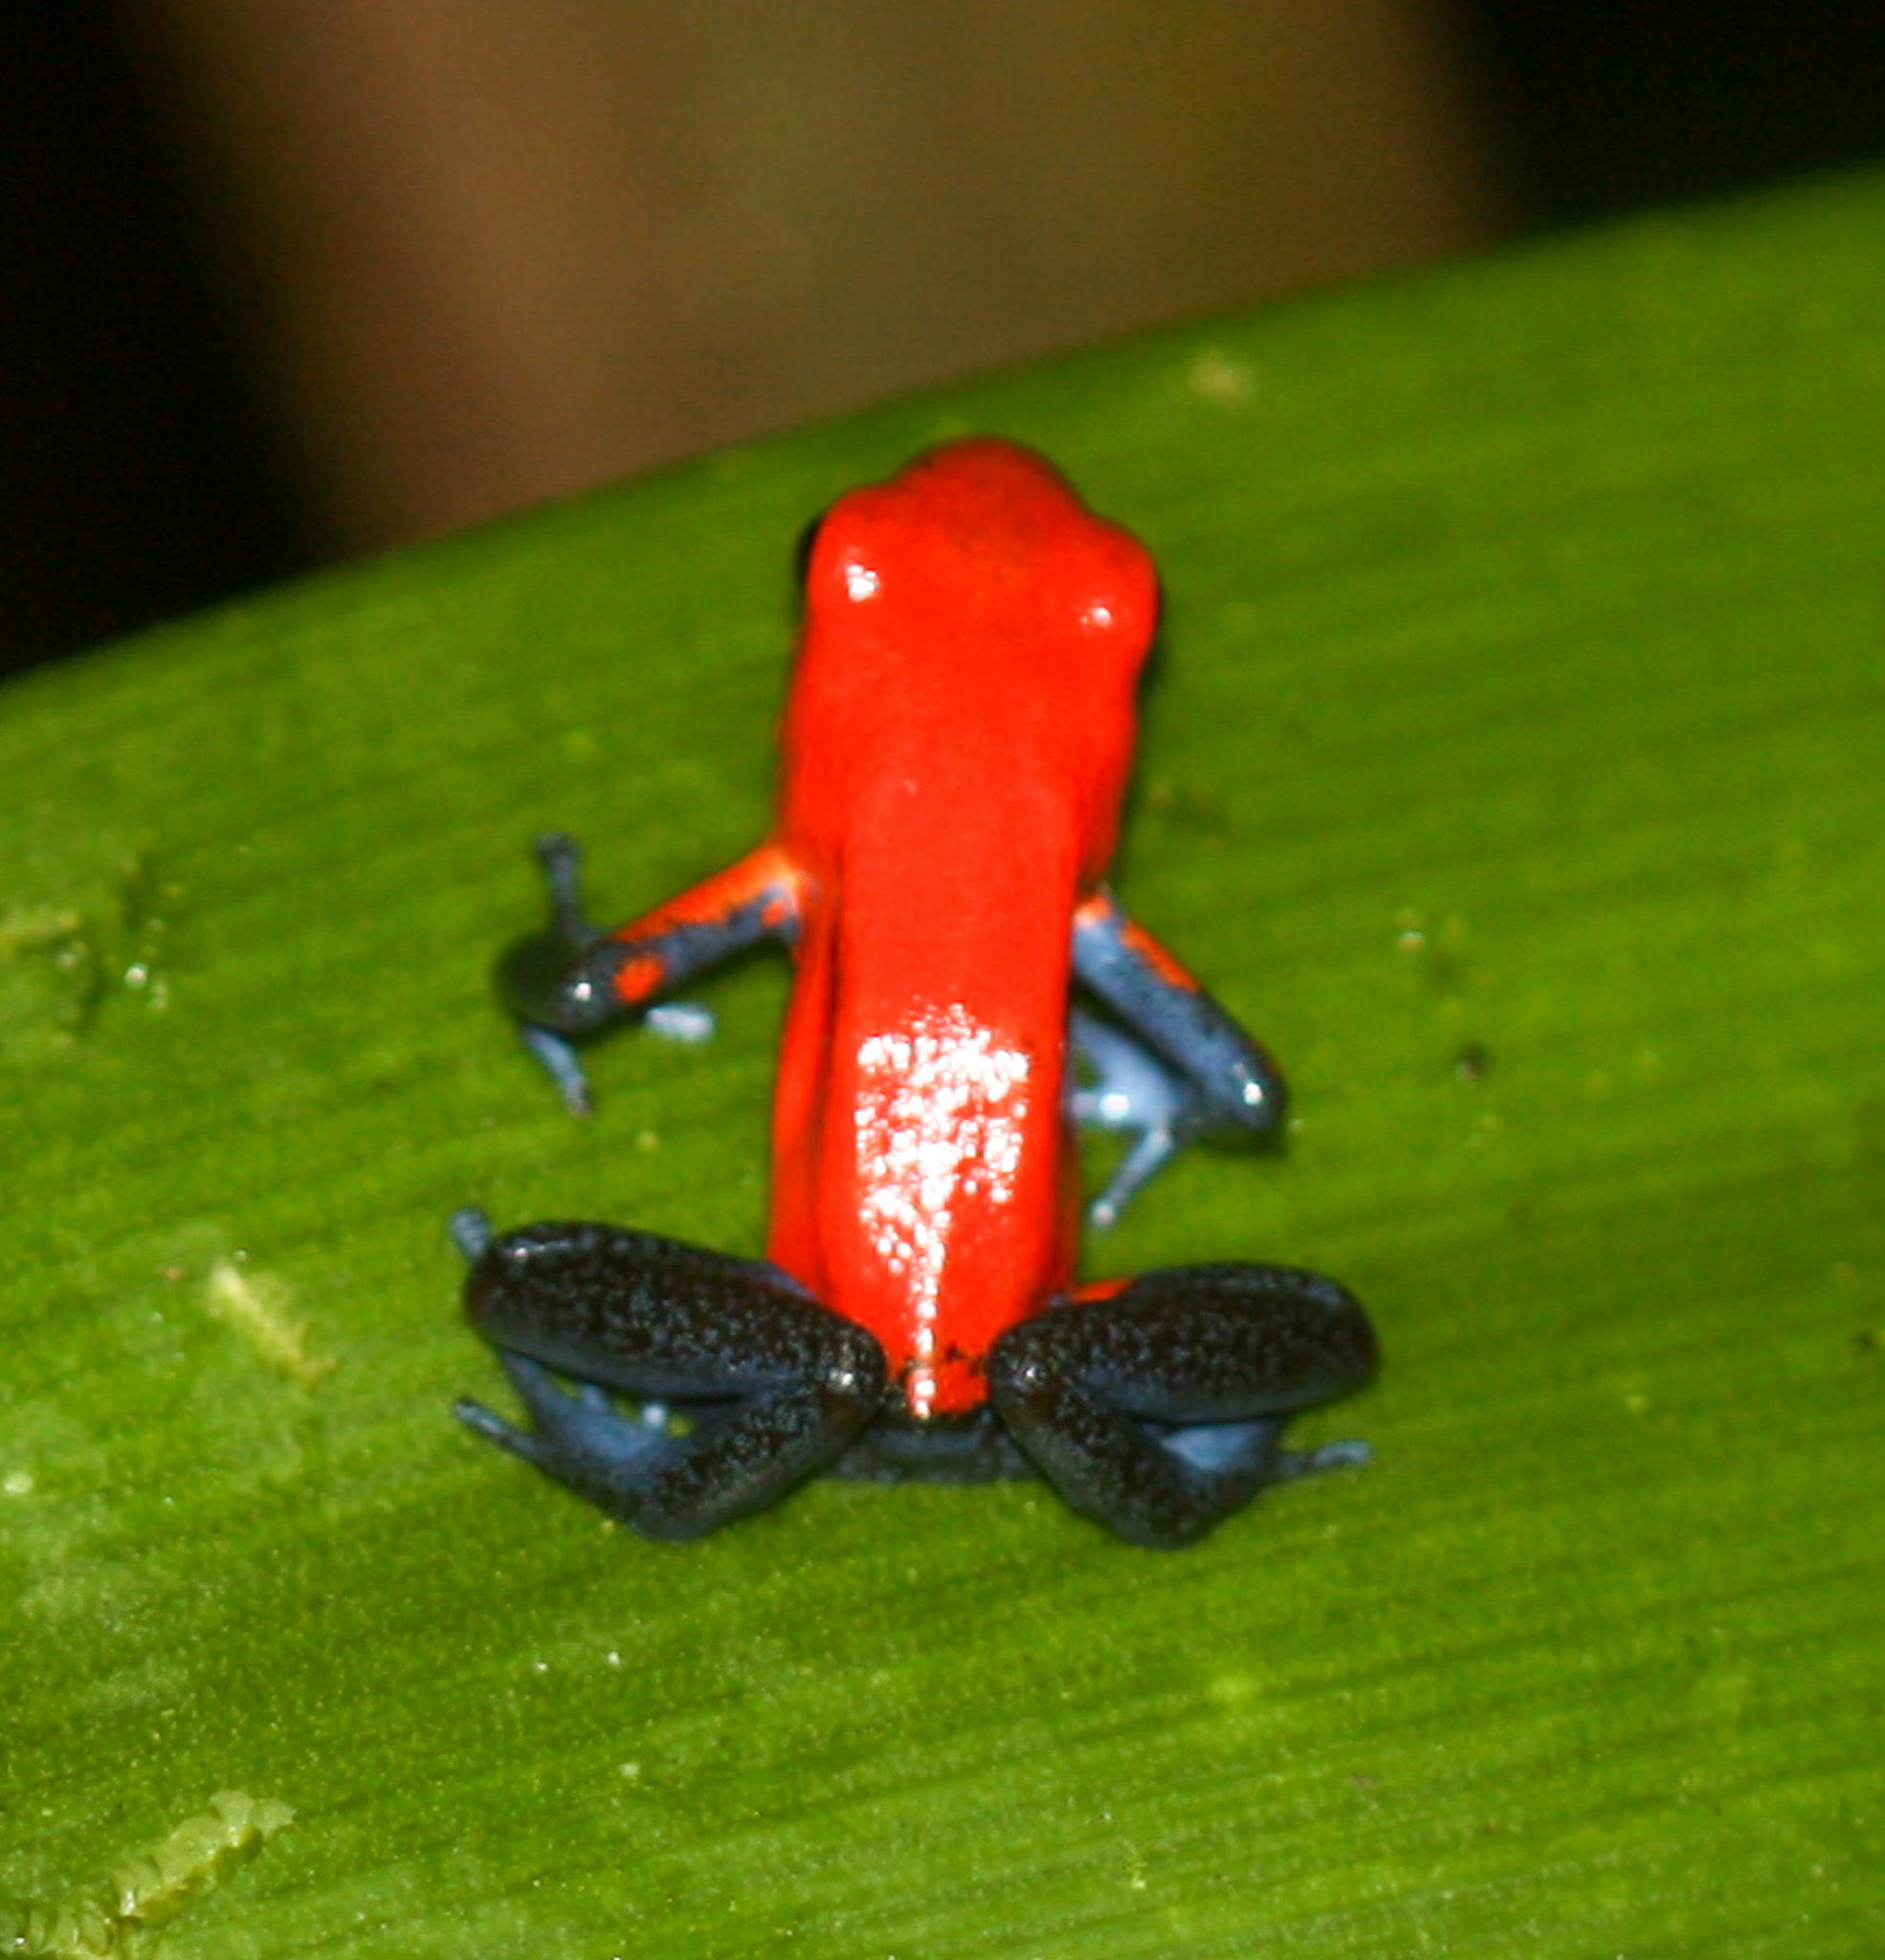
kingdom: Animalia
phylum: Chordata
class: Amphibia
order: Anura
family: Dendrobatidae
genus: Oophaga
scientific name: Oophaga pumilio
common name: Flaming poison frog
